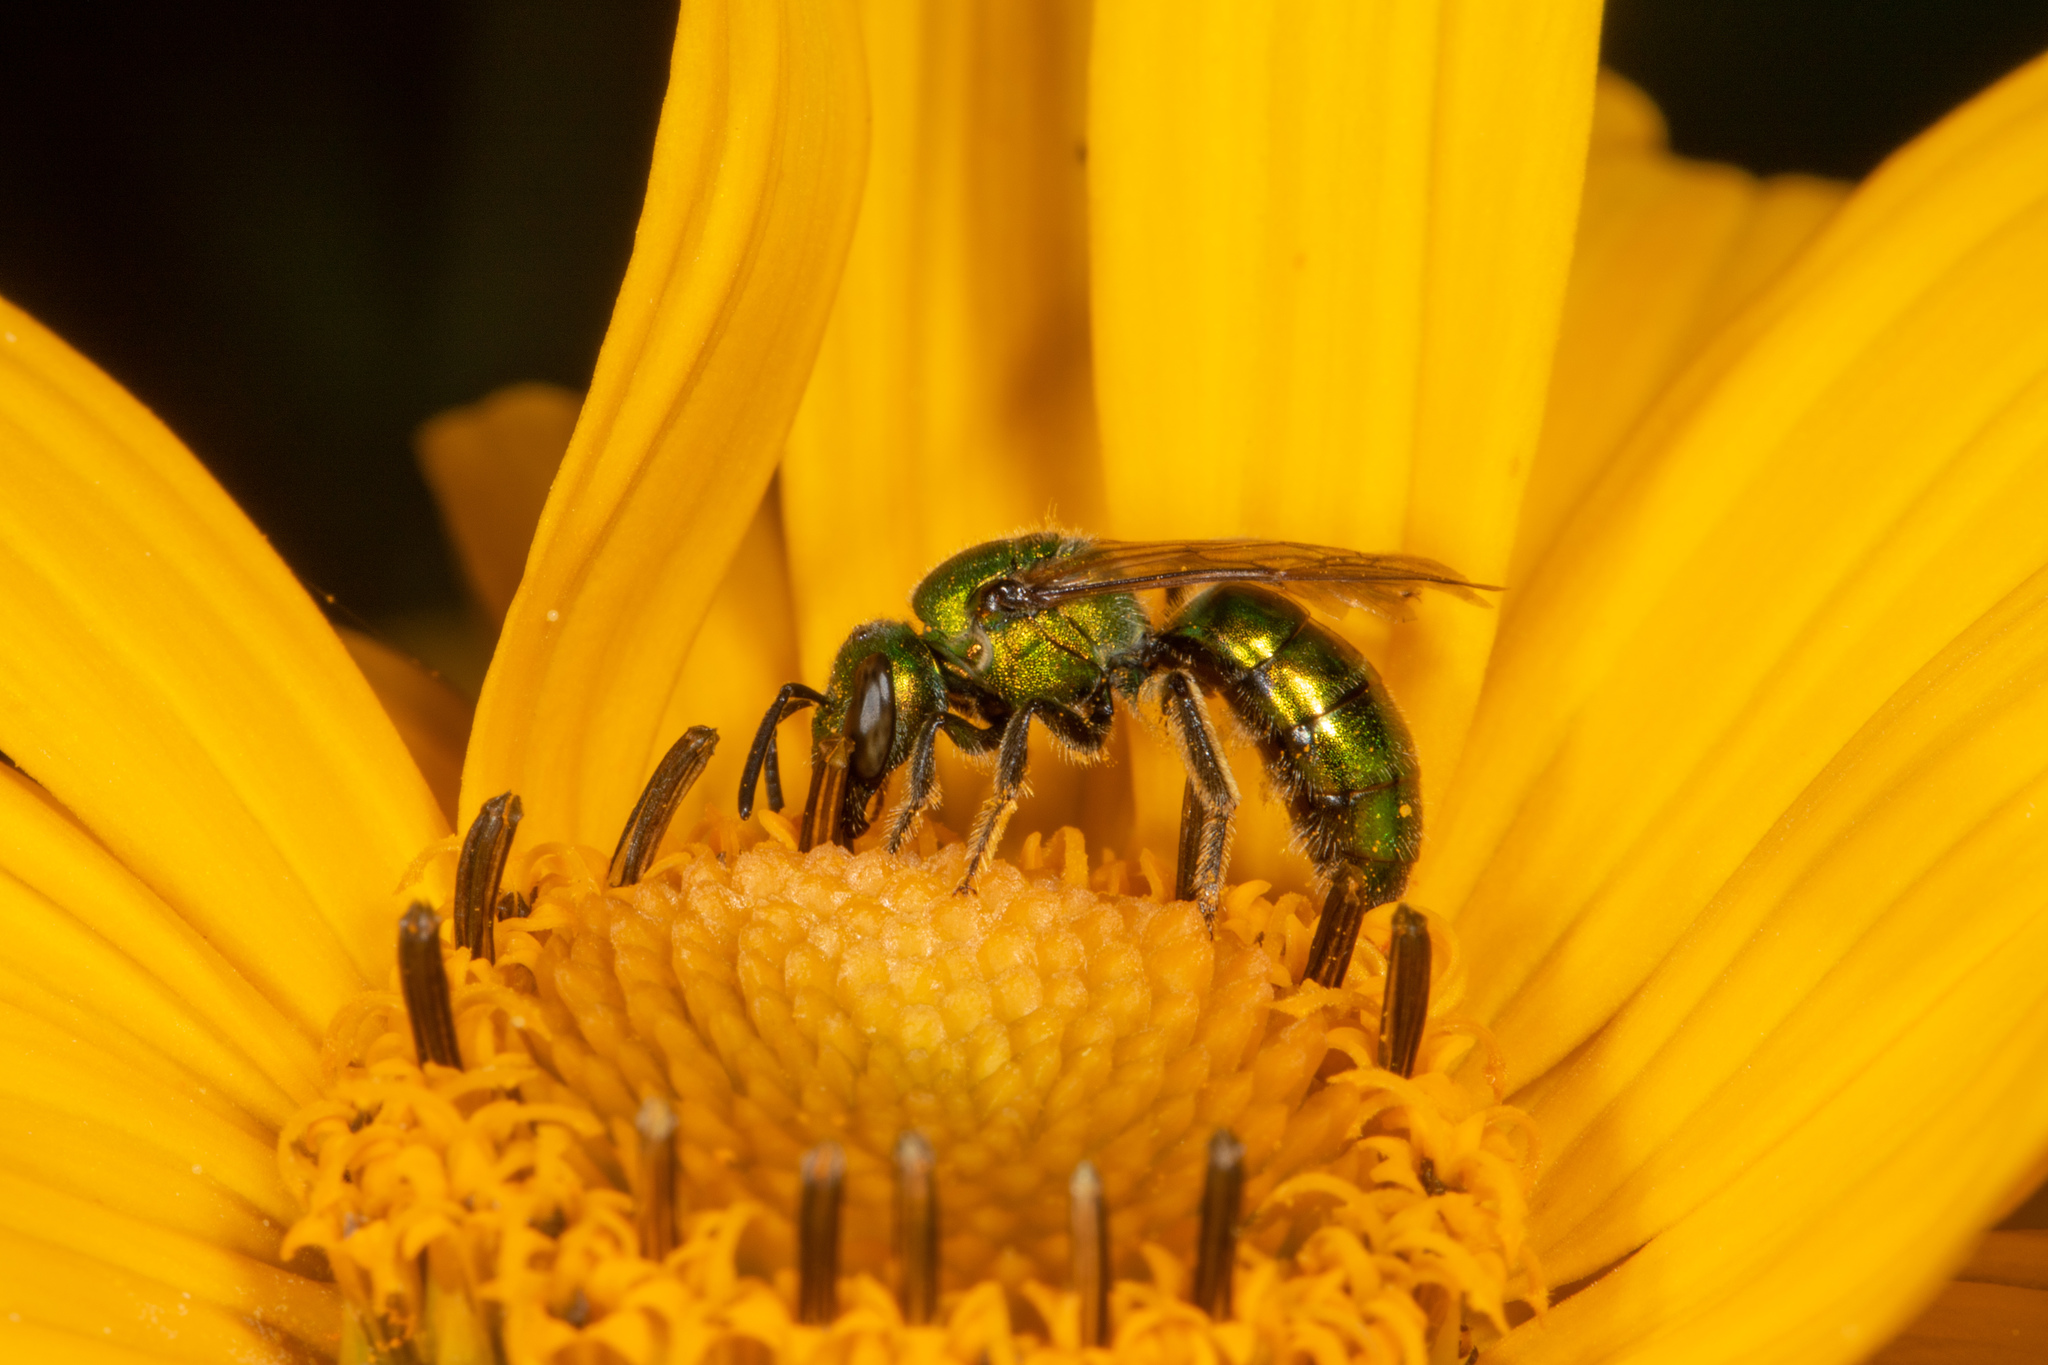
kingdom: Animalia
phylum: Arthropoda
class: Insecta
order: Hymenoptera
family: Halictidae
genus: Augochlora
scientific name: Augochlora pura
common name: Pure green sweat bee
